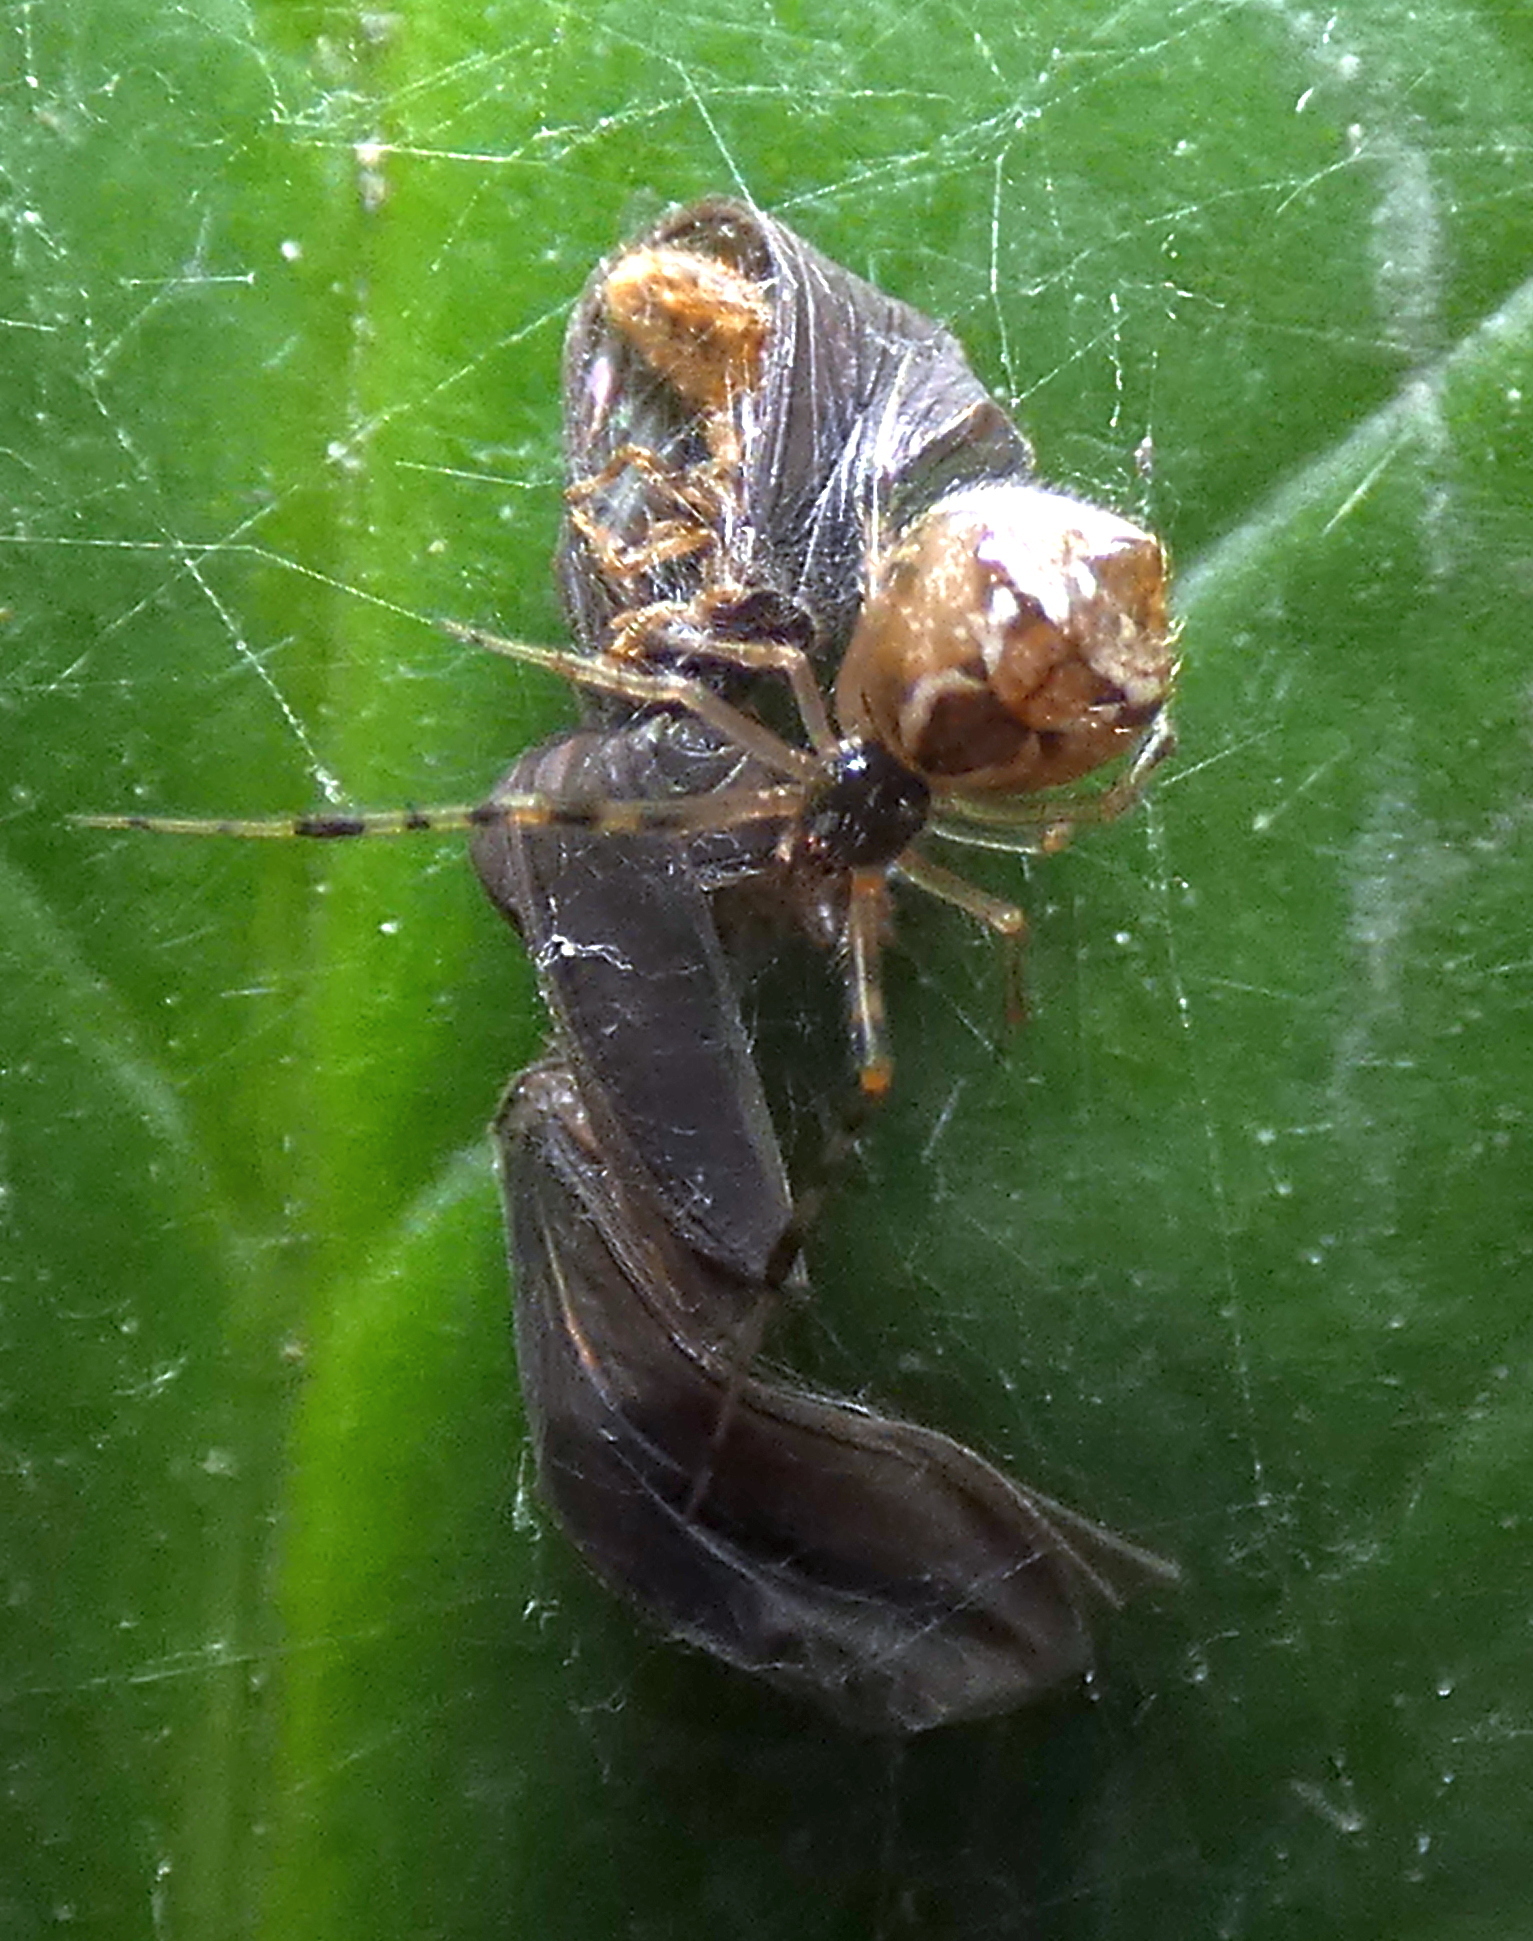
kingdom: Animalia
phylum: Arthropoda
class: Arachnida
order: Araneae
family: Theridiidae
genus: Cryptachaea
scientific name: Cryptachaea hirta
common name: Cobweb spiders
